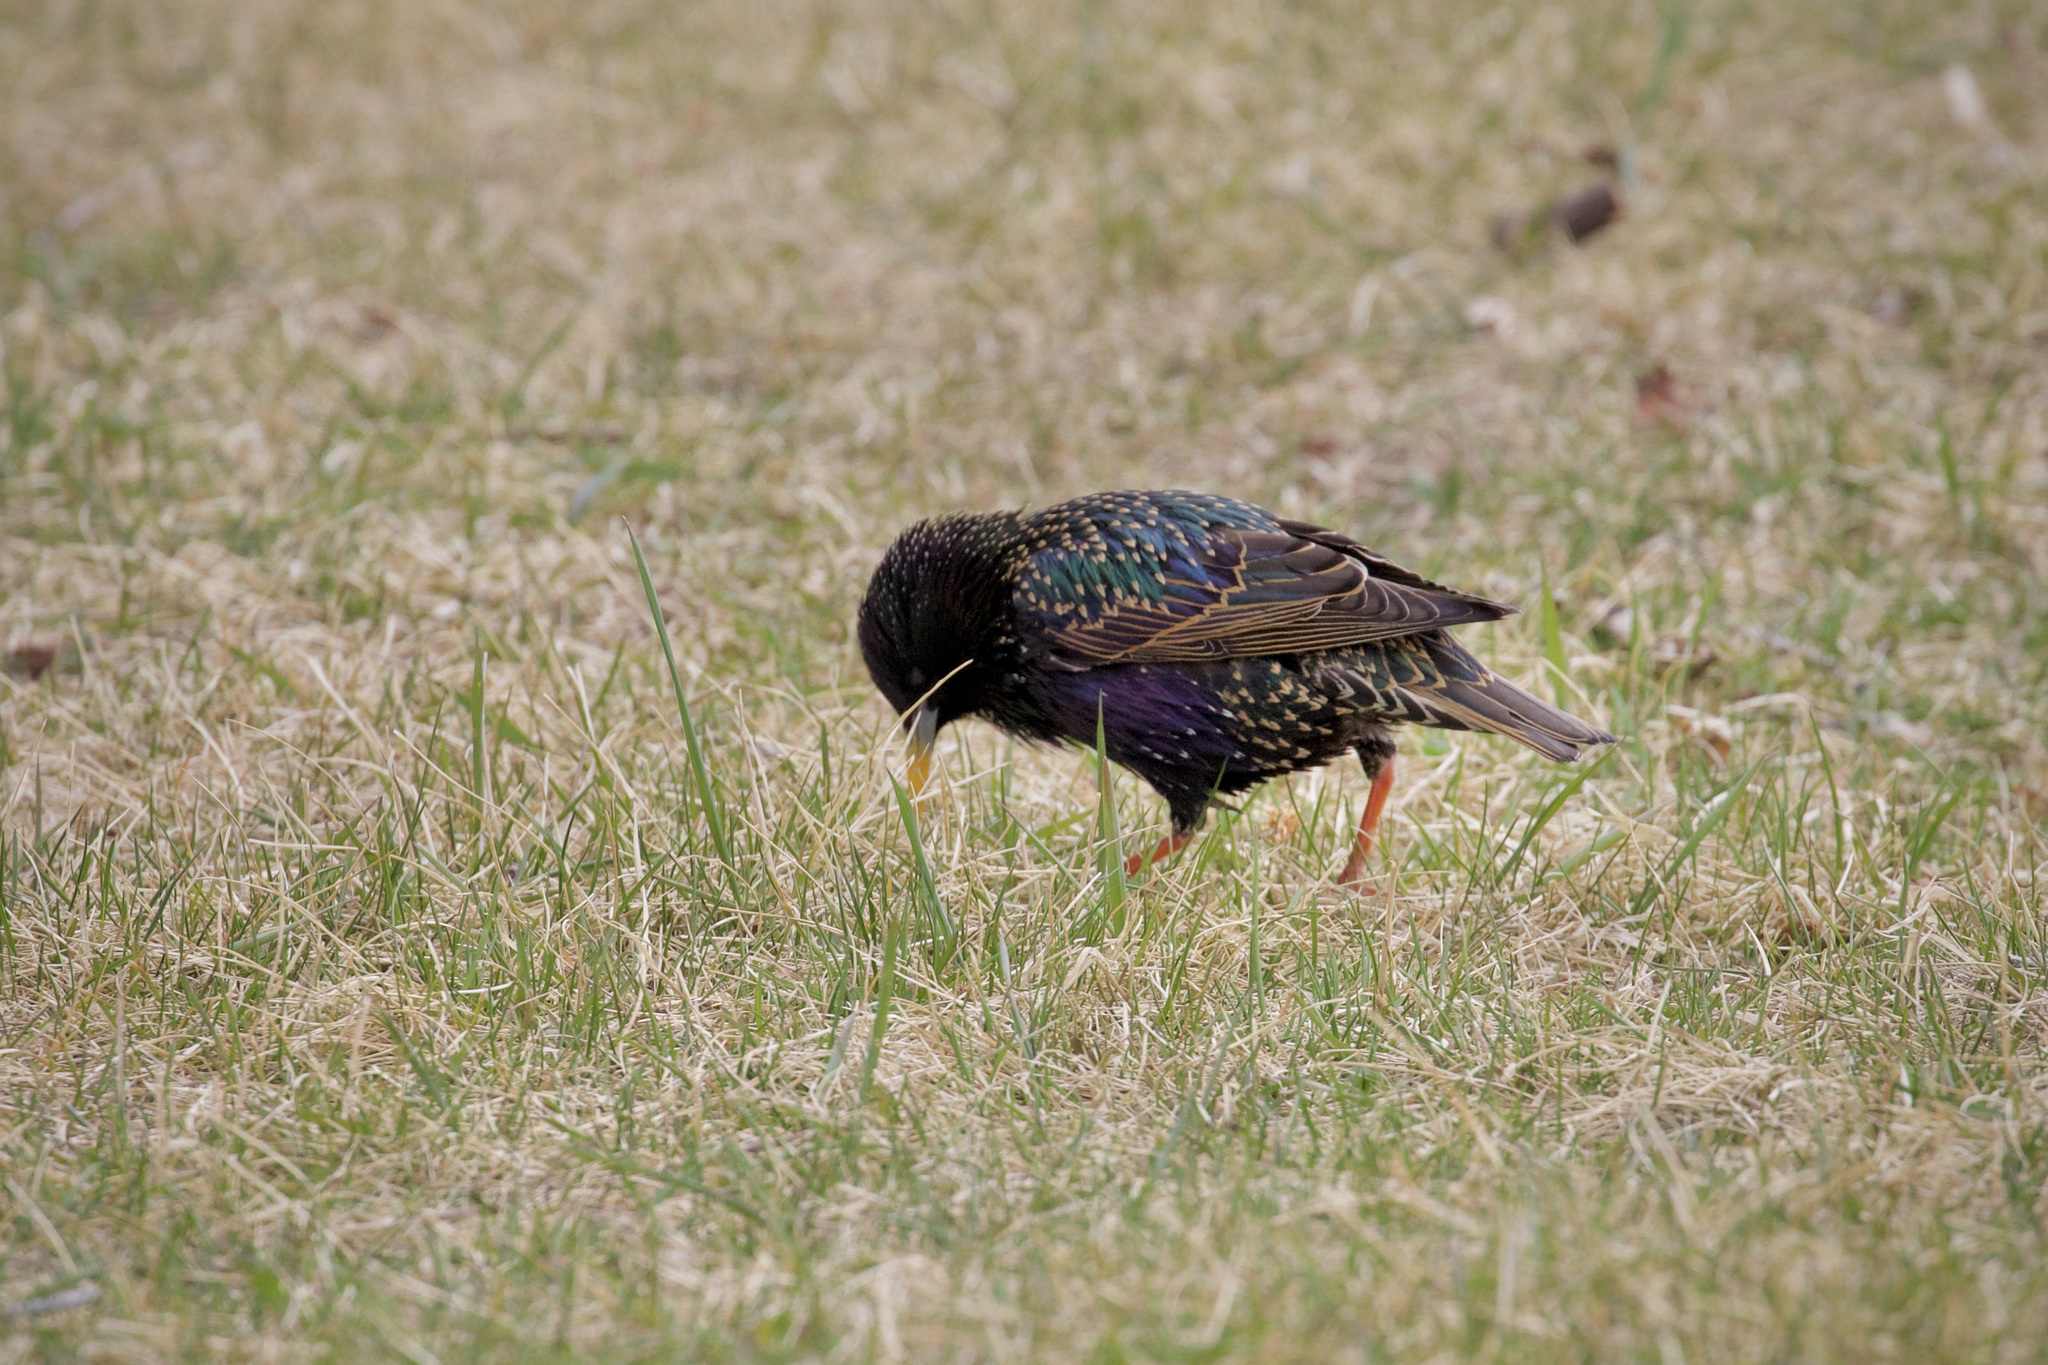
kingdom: Animalia
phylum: Chordata
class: Aves
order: Passeriformes
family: Sturnidae
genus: Sturnus
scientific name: Sturnus vulgaris
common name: Common starling
